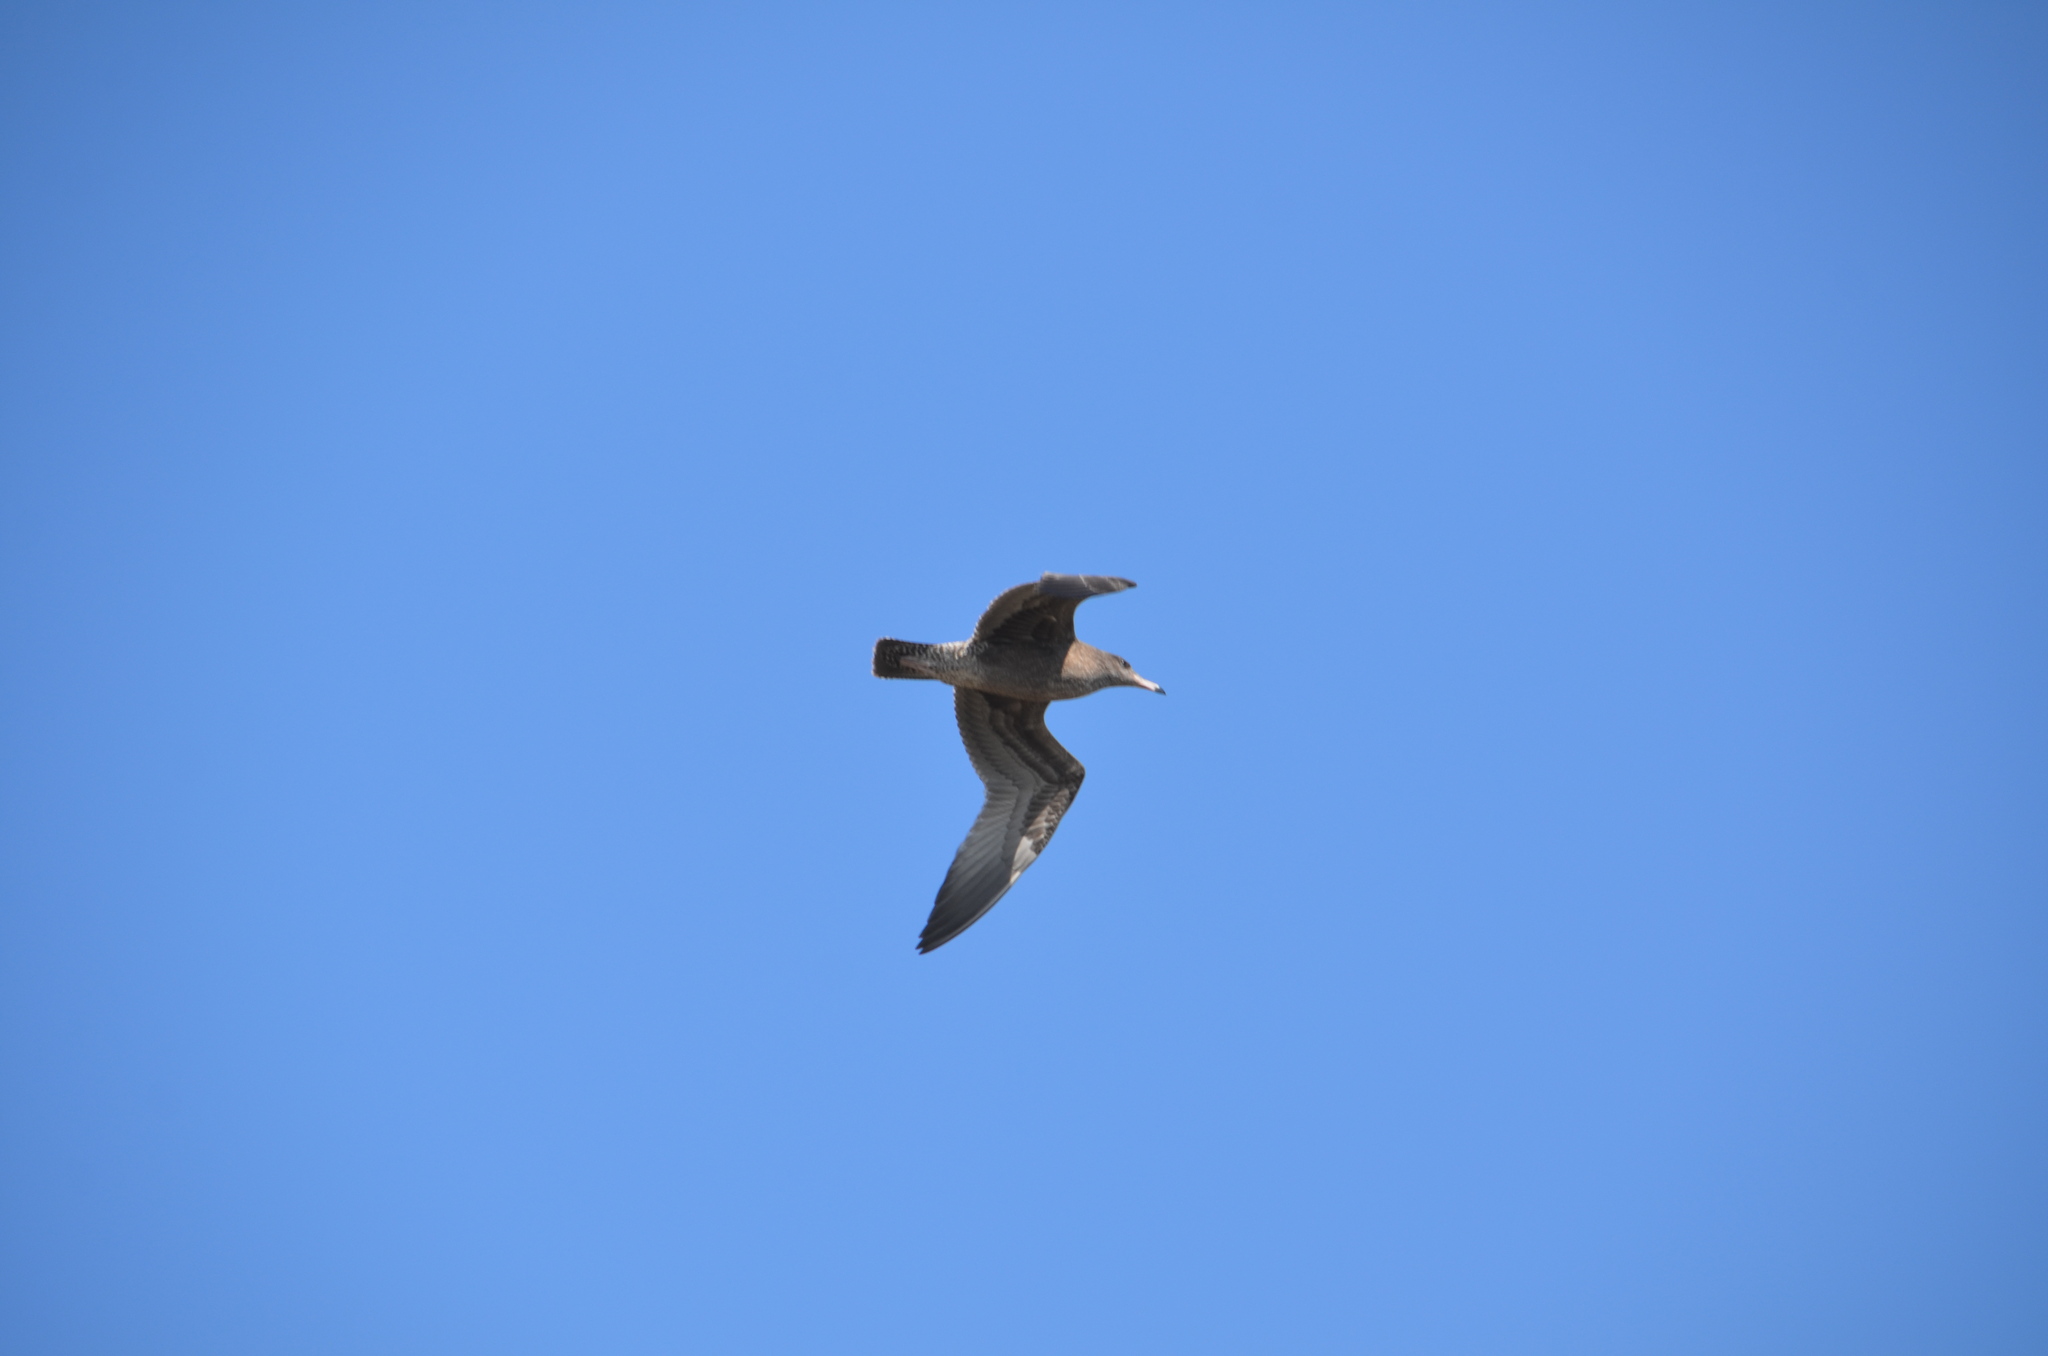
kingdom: Animalia
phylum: Chordata
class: Aves
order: Charadriiformes
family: Laridae
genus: Larus
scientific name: Larus californicus
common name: California gull
